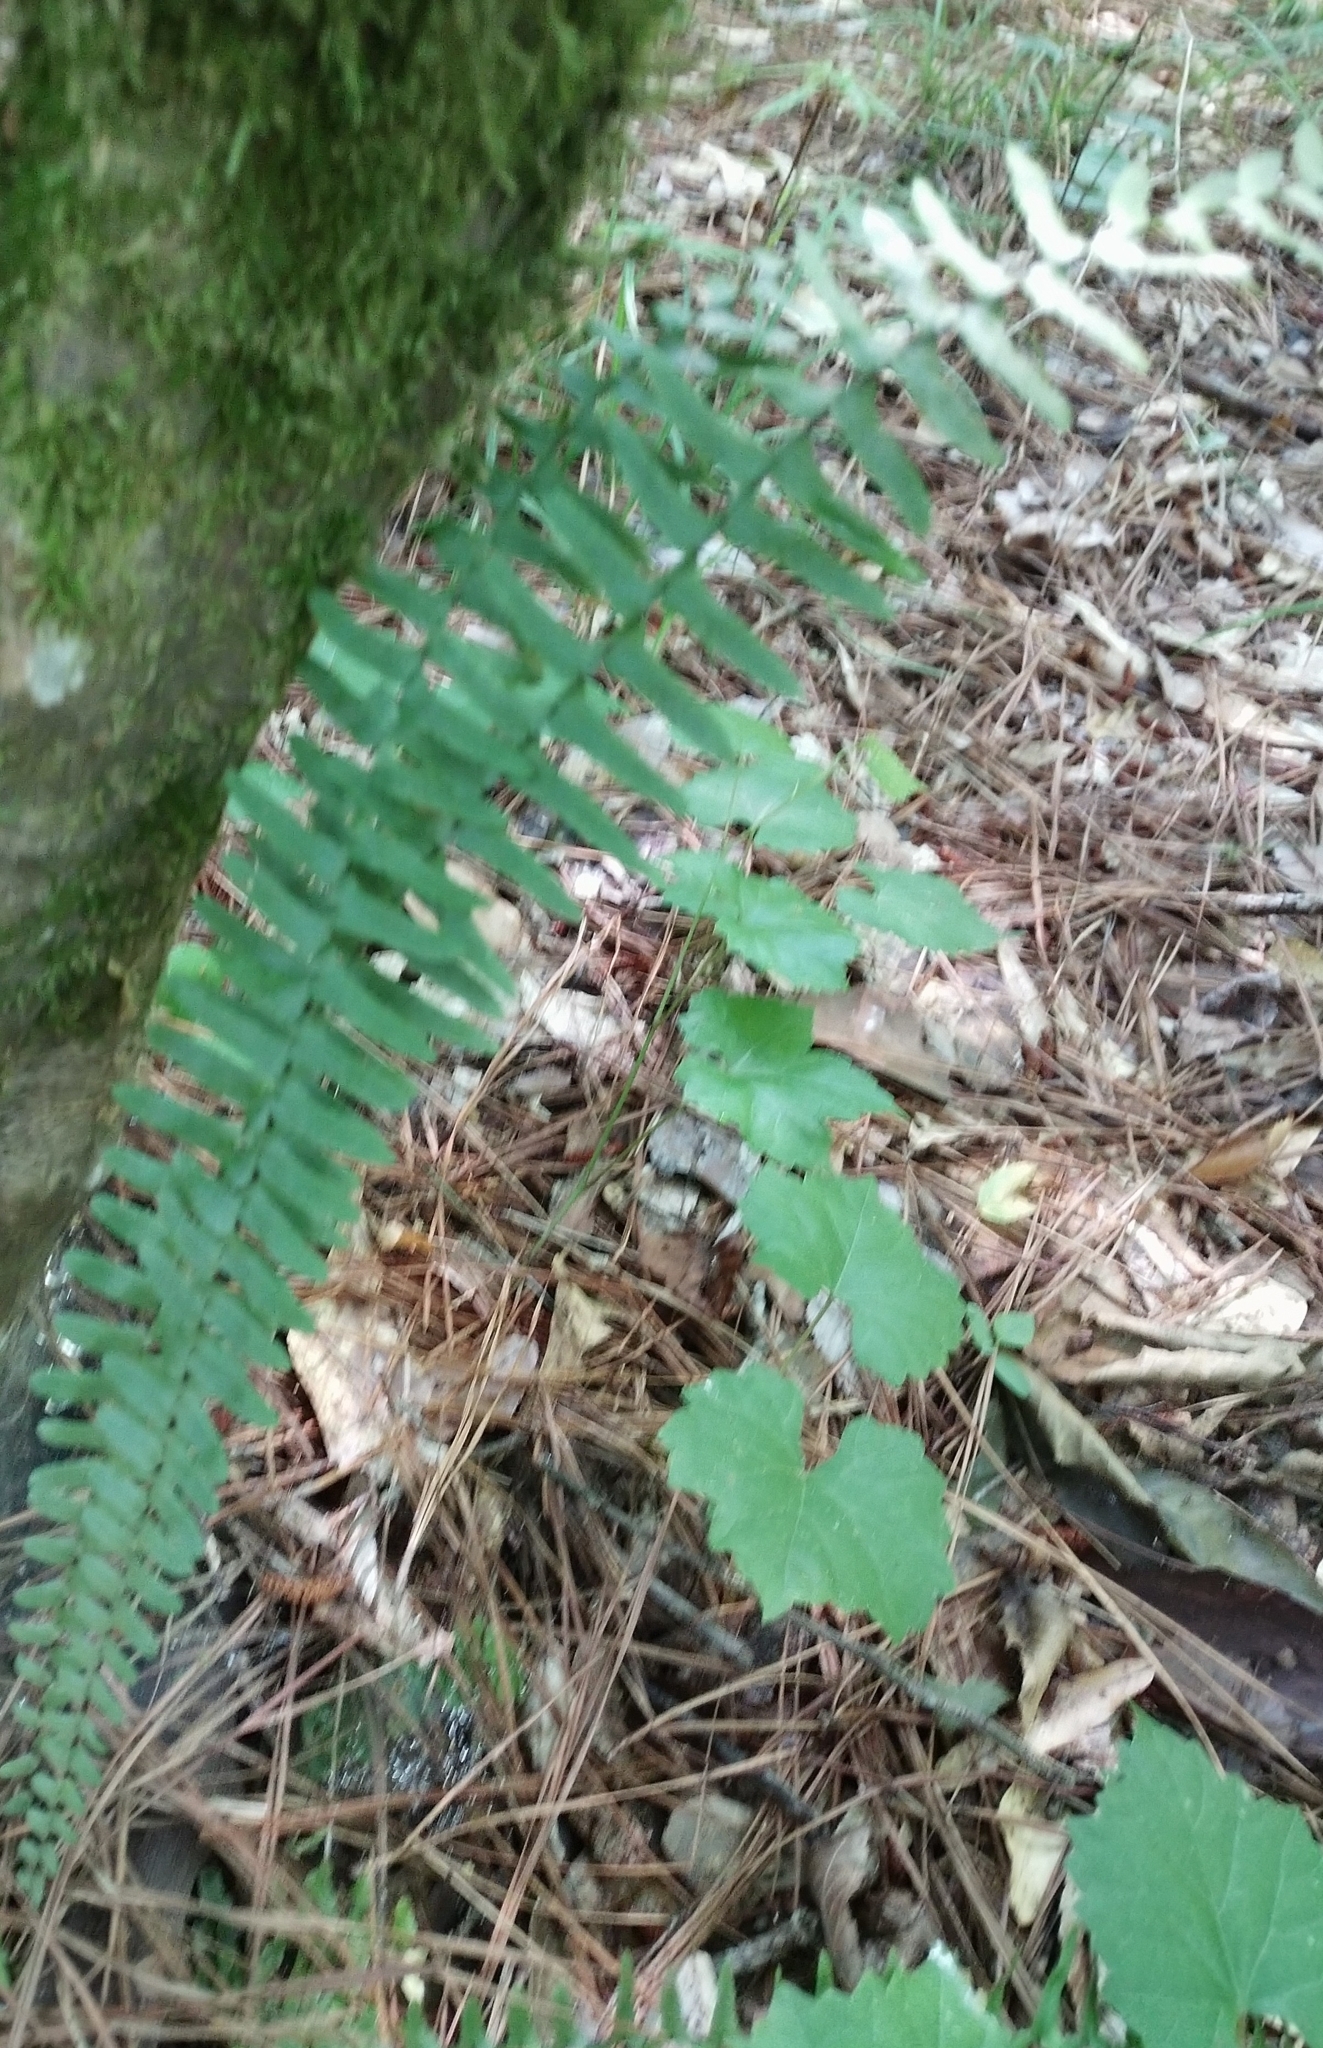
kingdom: Plantae
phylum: Tracheophyta
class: Polypodiopsida
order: Polypodiales
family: Aspleniaceae
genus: Asplenium
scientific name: Asplenium platyneuron
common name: Ebony spleenwort
